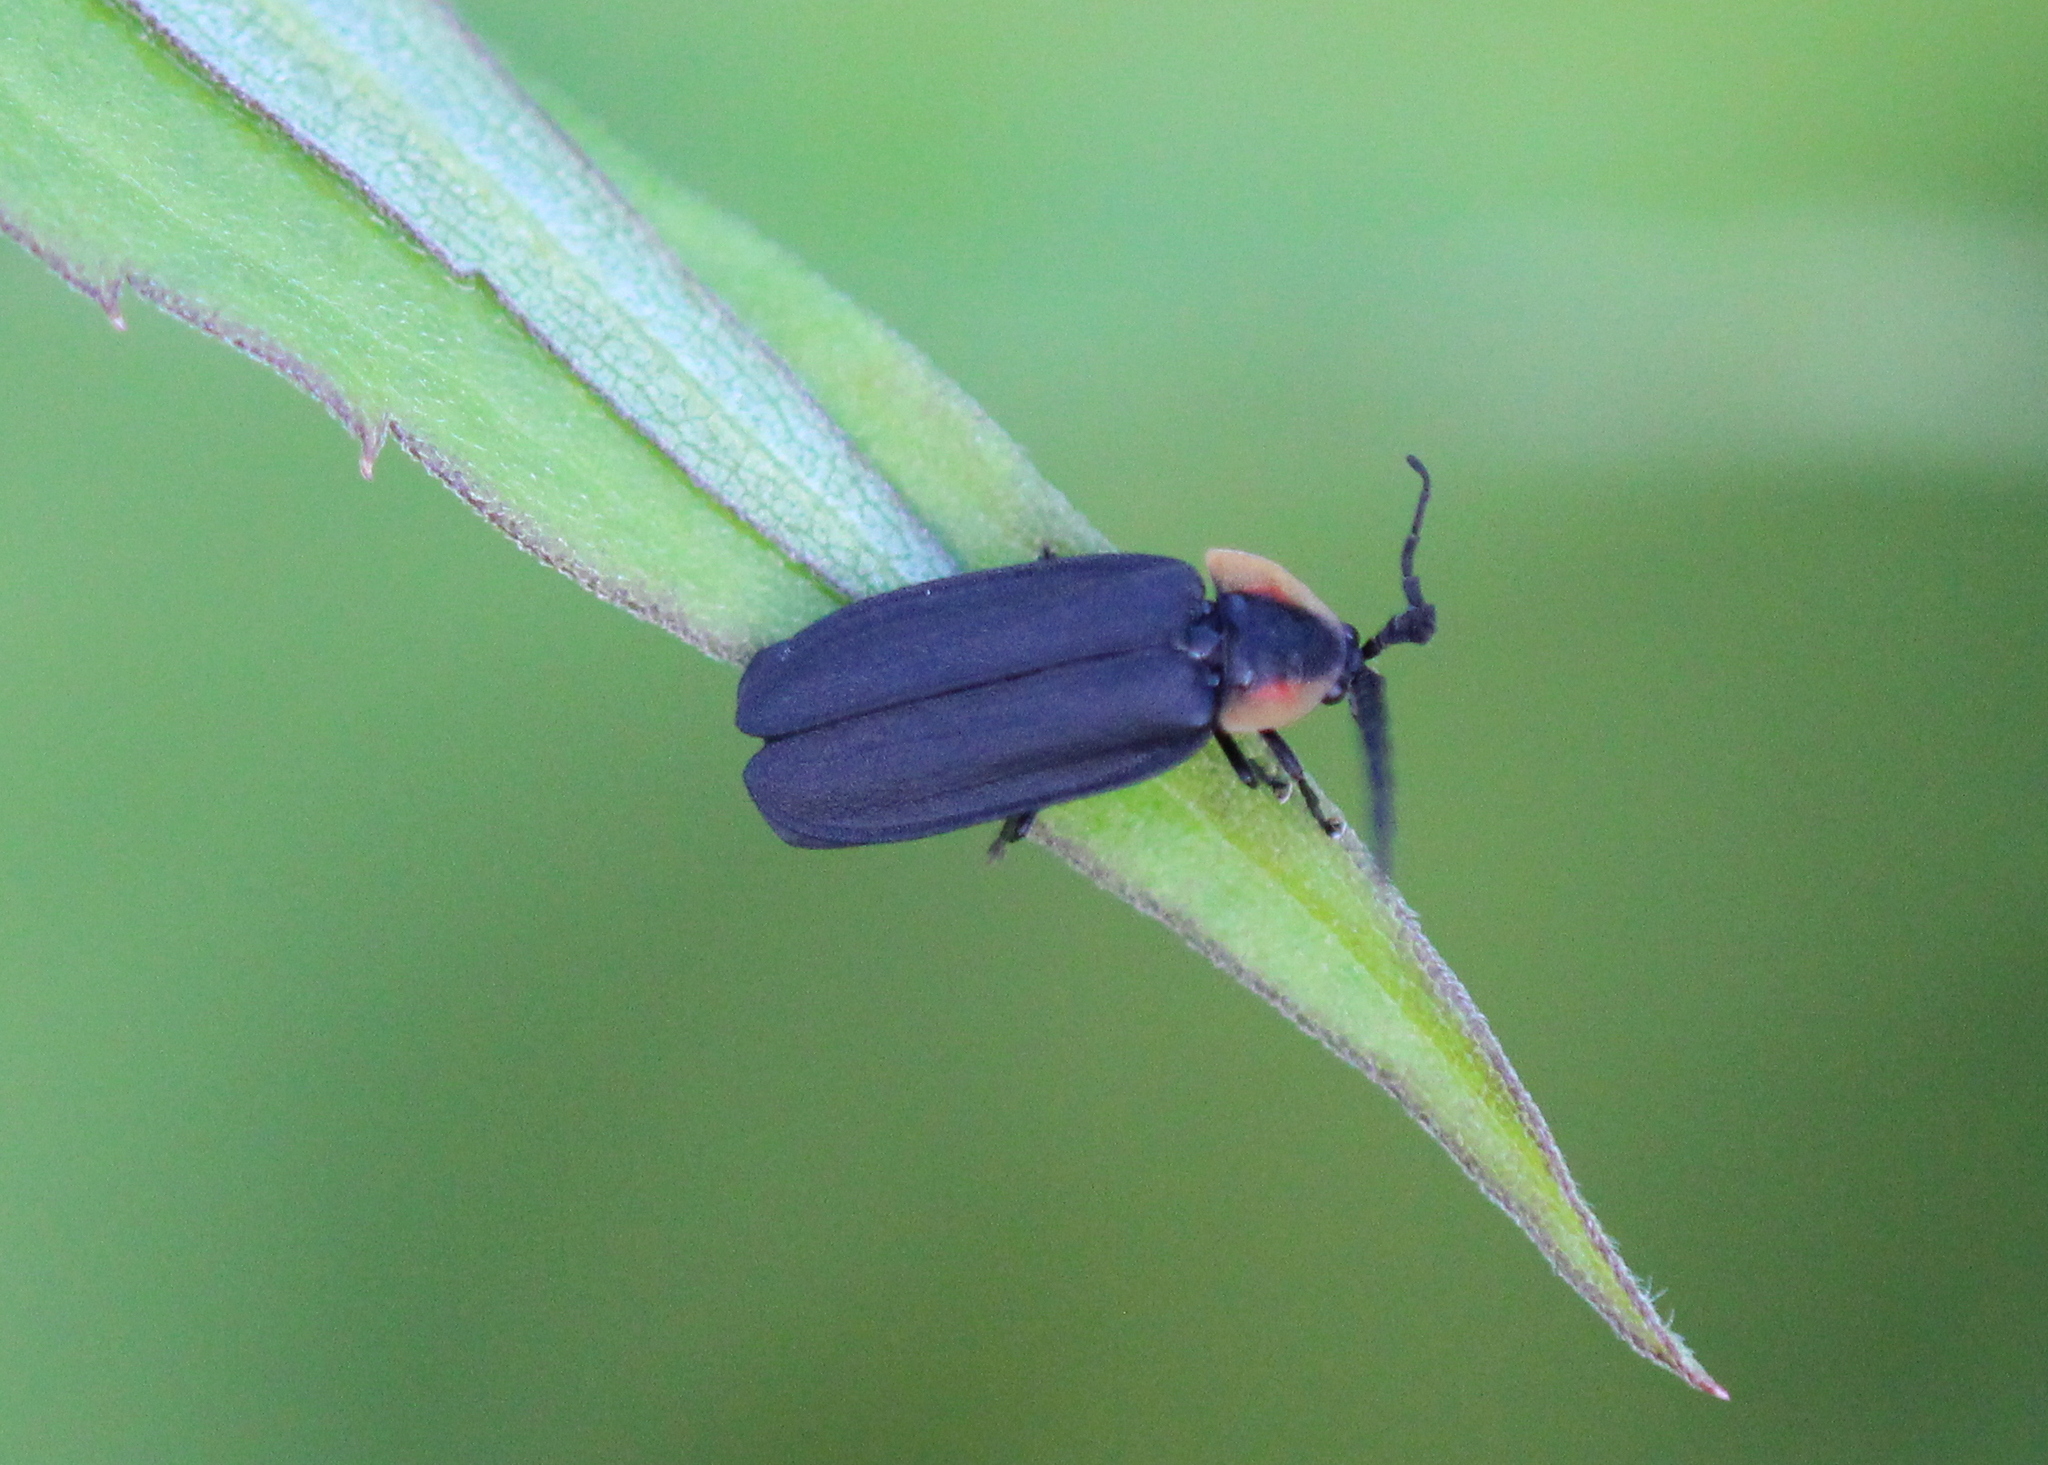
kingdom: Animalia
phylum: Arthropoda
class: Insecta
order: Coleoptera
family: Lampyridae
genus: Lucidota
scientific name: Lucidota atra
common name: Black firefly
